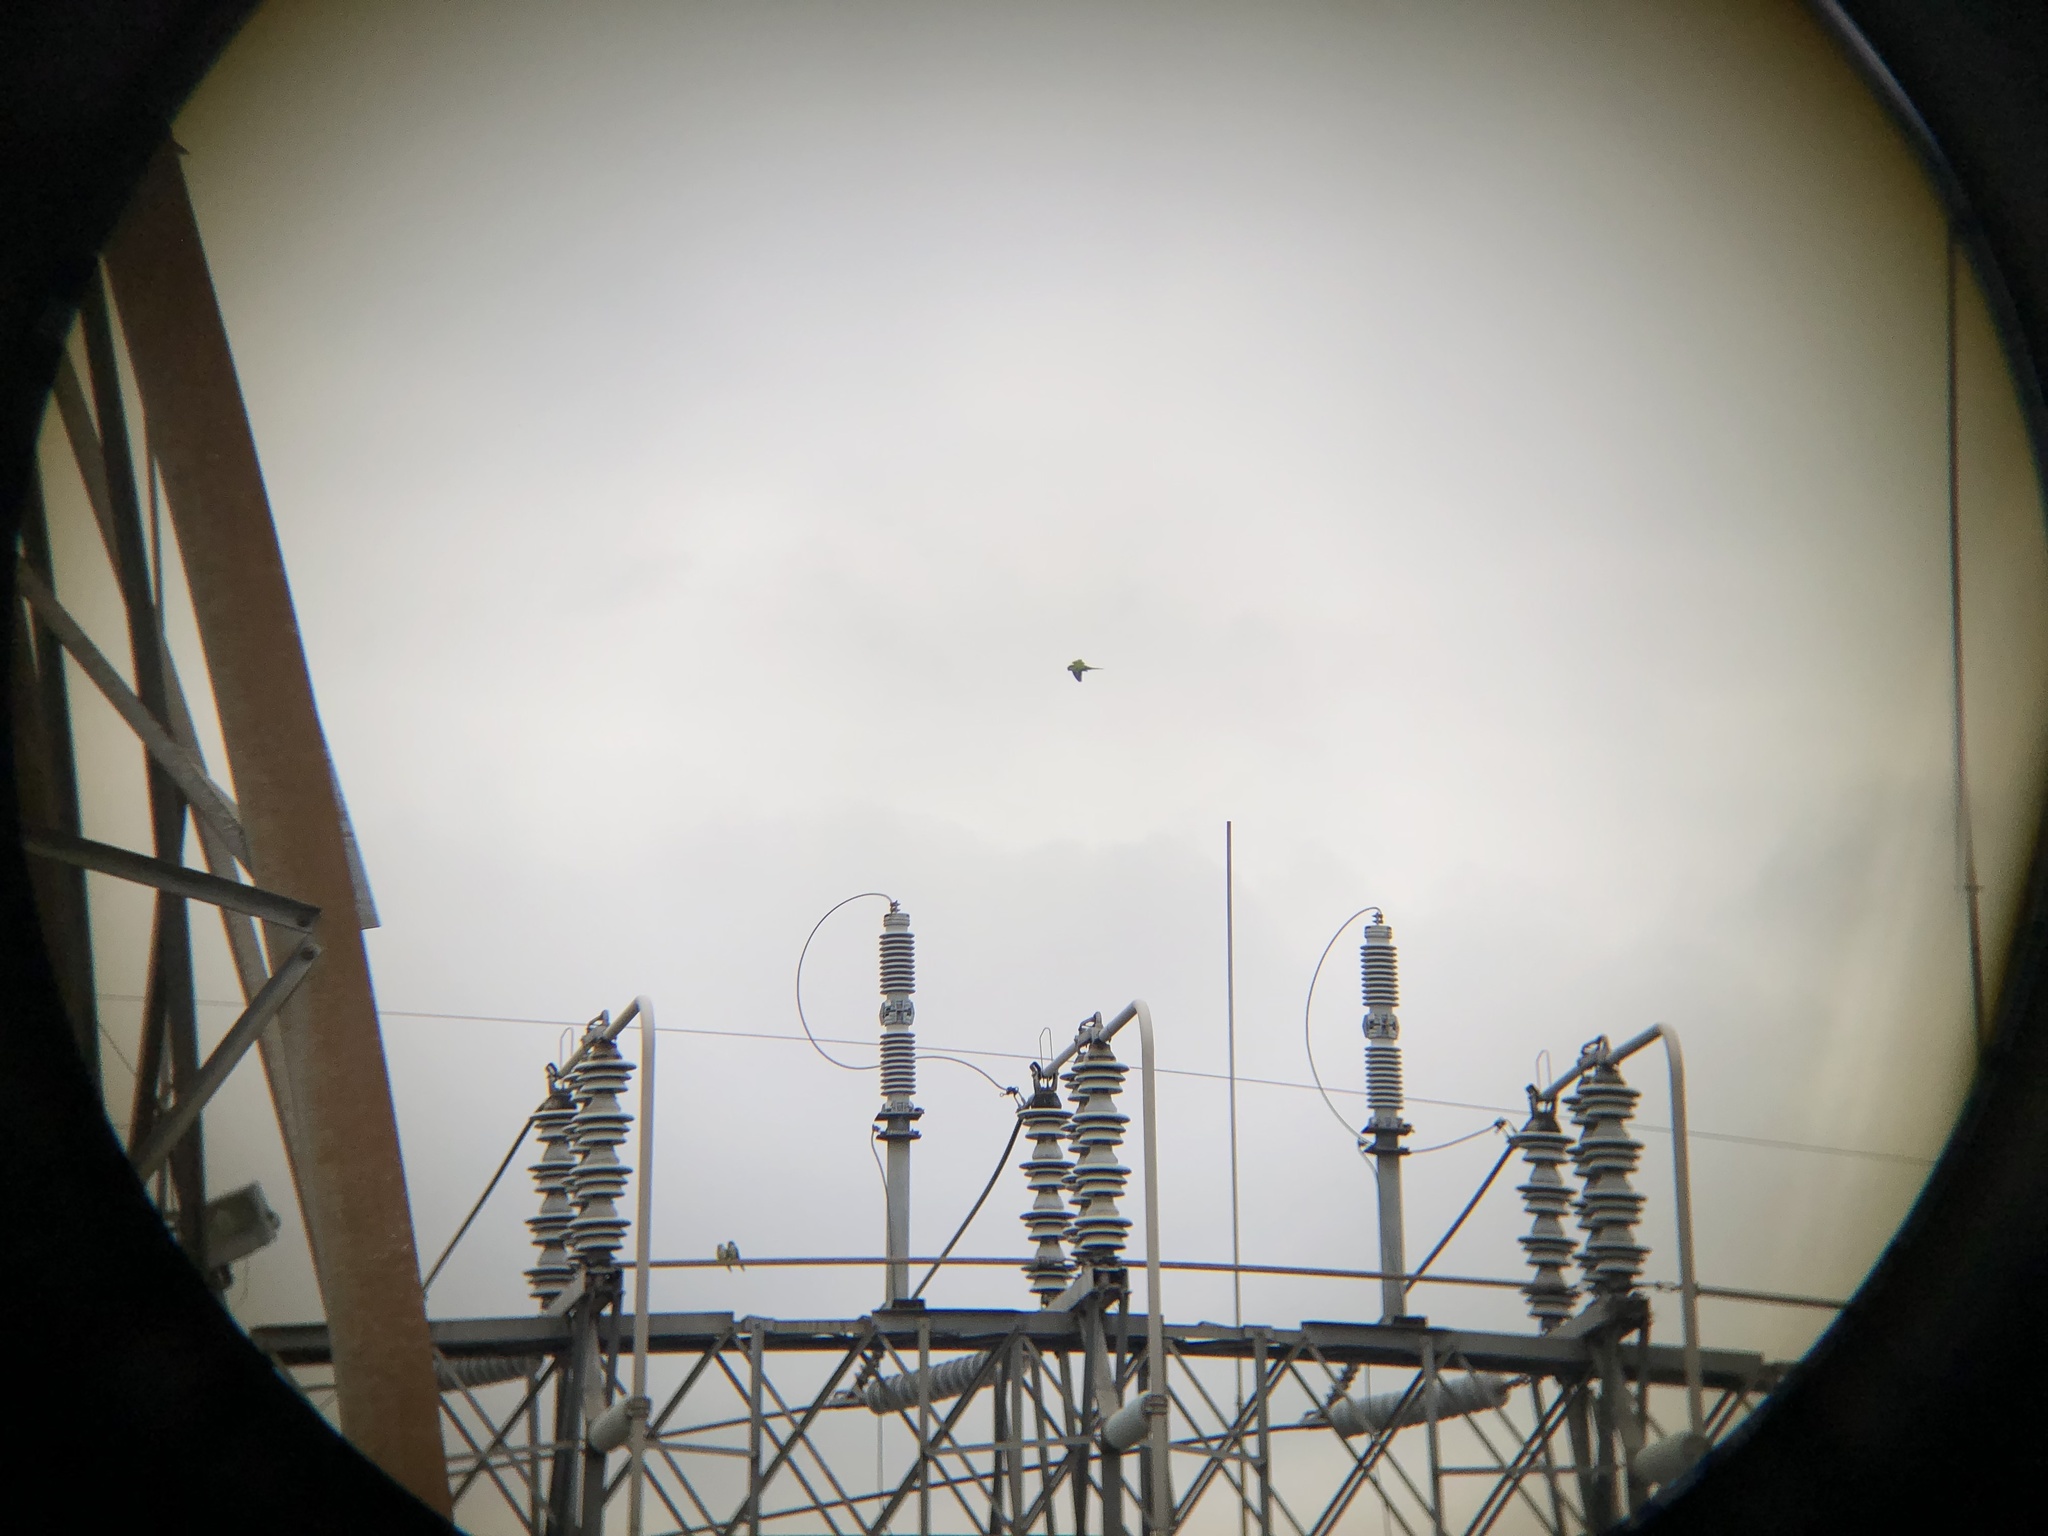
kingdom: Animalia
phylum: Chordata
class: Aves
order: Psittaciformes
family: Psittacidae
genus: Myiopsitta
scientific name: Myiopsitta monachus
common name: Monk parakeet
